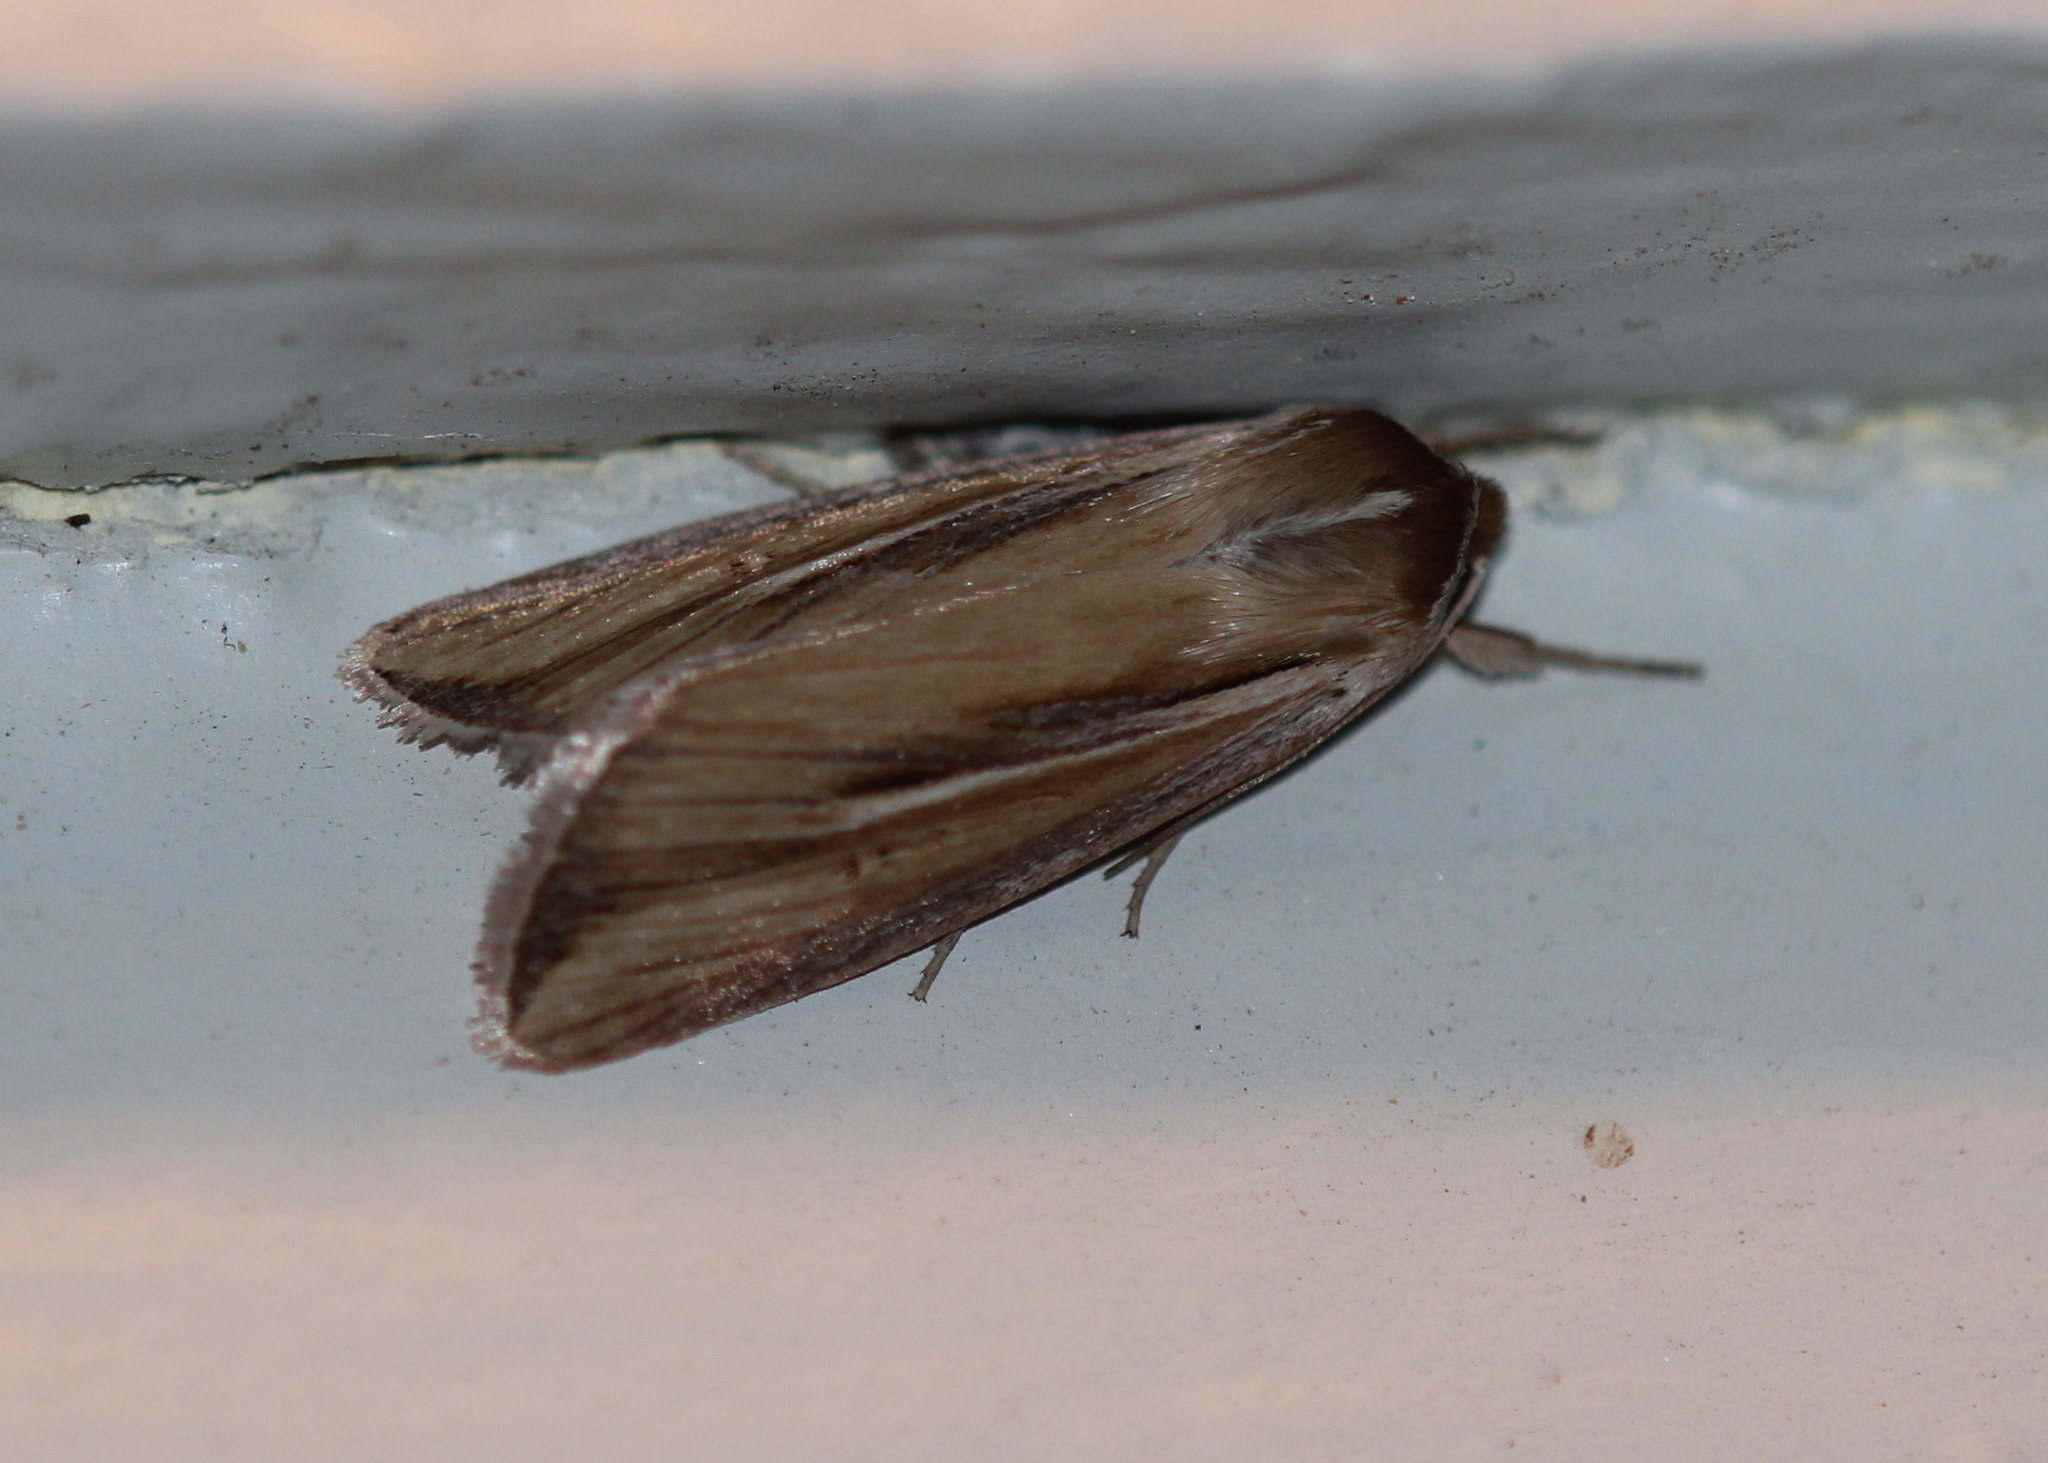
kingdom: Animalia
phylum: Arthropoda
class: Insecta
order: Lepidoptera
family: Noctuidae
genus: Dargida
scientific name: Dargida diffusa
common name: Wheat head armyworm
